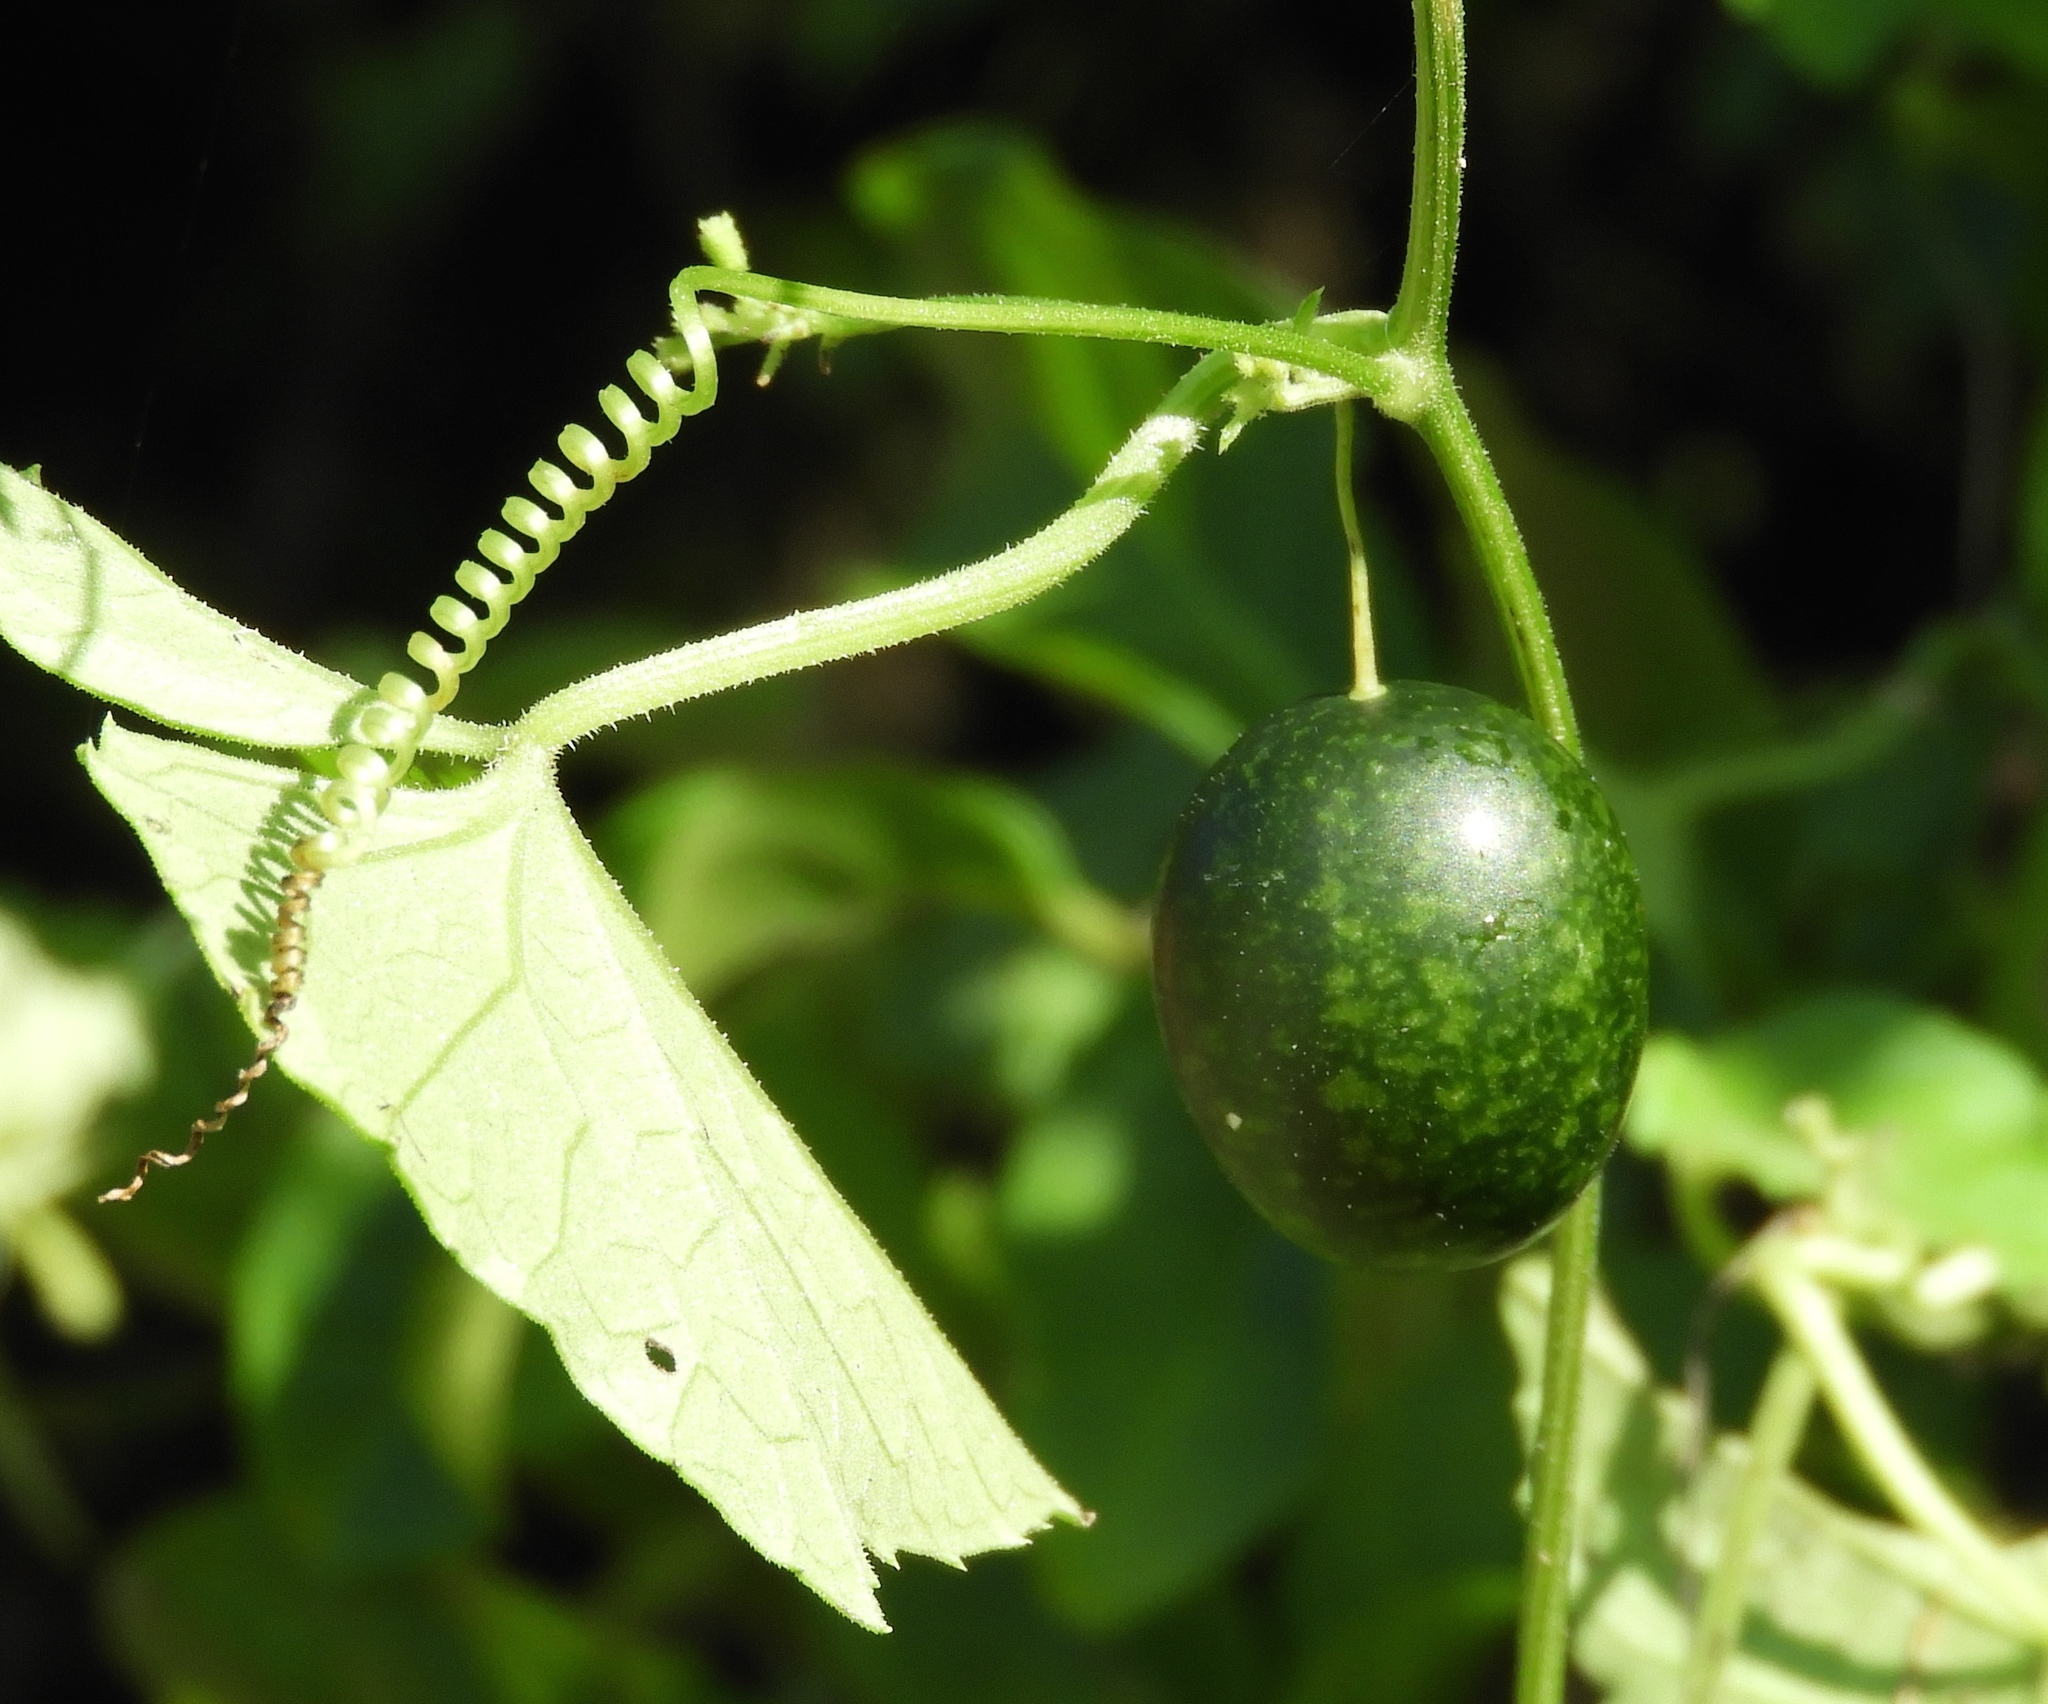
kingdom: Plantae
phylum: Tracheophyta
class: Magnoliopsida
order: Cucurbitales
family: Cucurbitaceae
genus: Melothria
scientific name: Melothria pendula
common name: Creeping-cucumber
